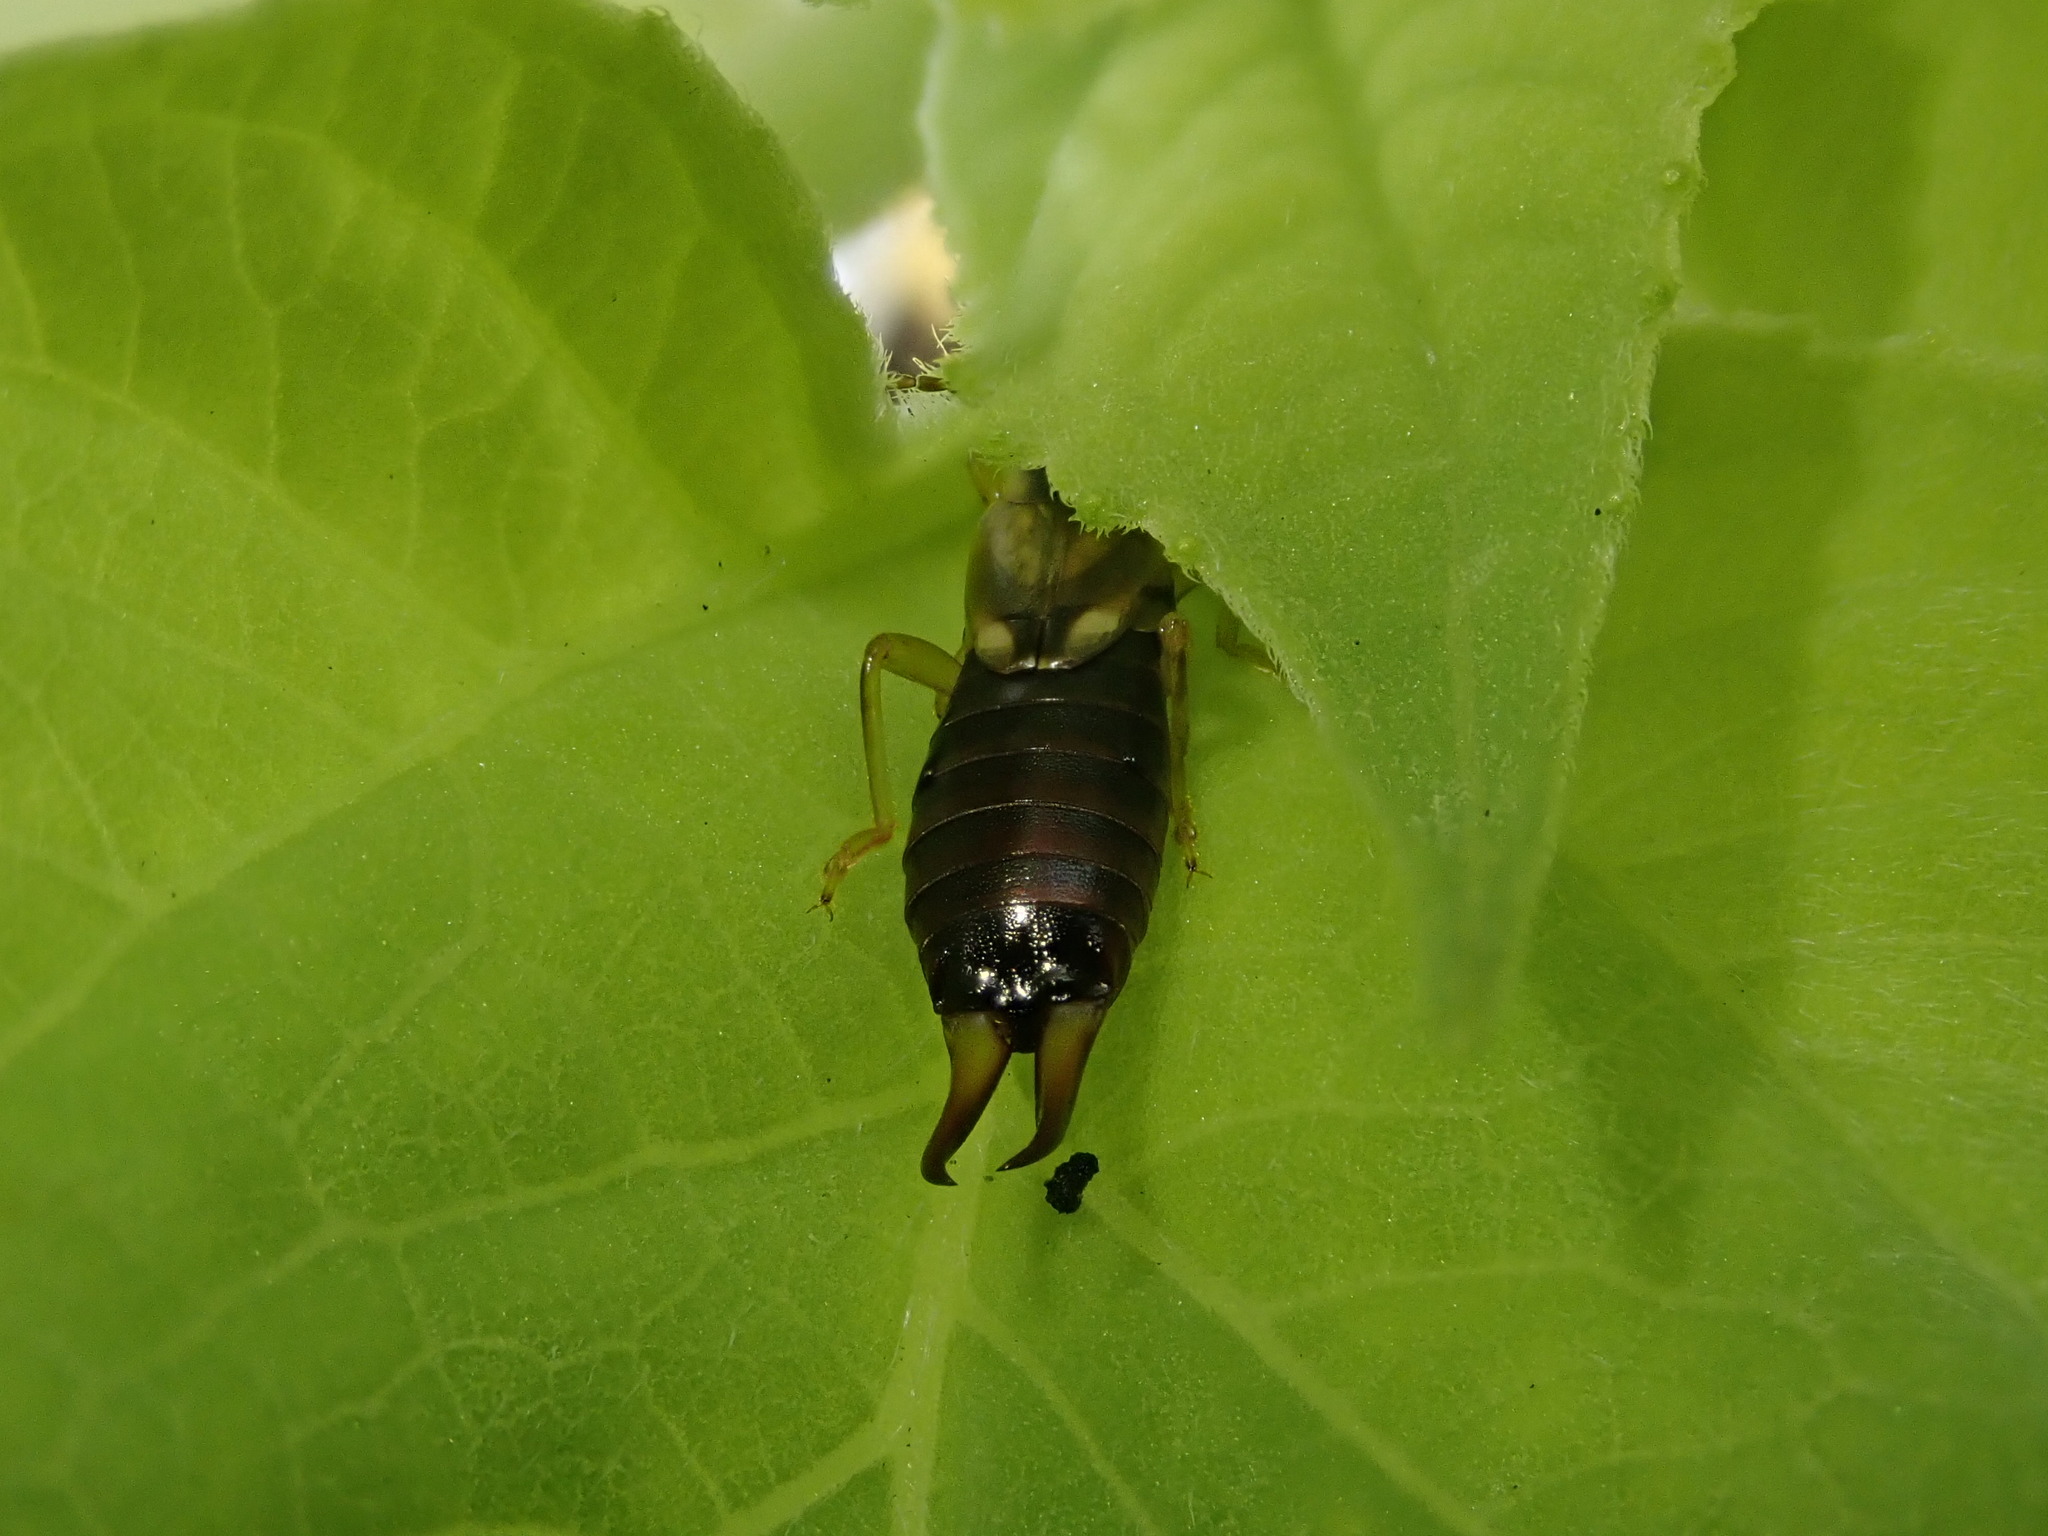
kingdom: Animalia
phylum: Arthropoda
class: Insecta
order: Dermaptera
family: Forficulidae
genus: Forficula
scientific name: Forficula
